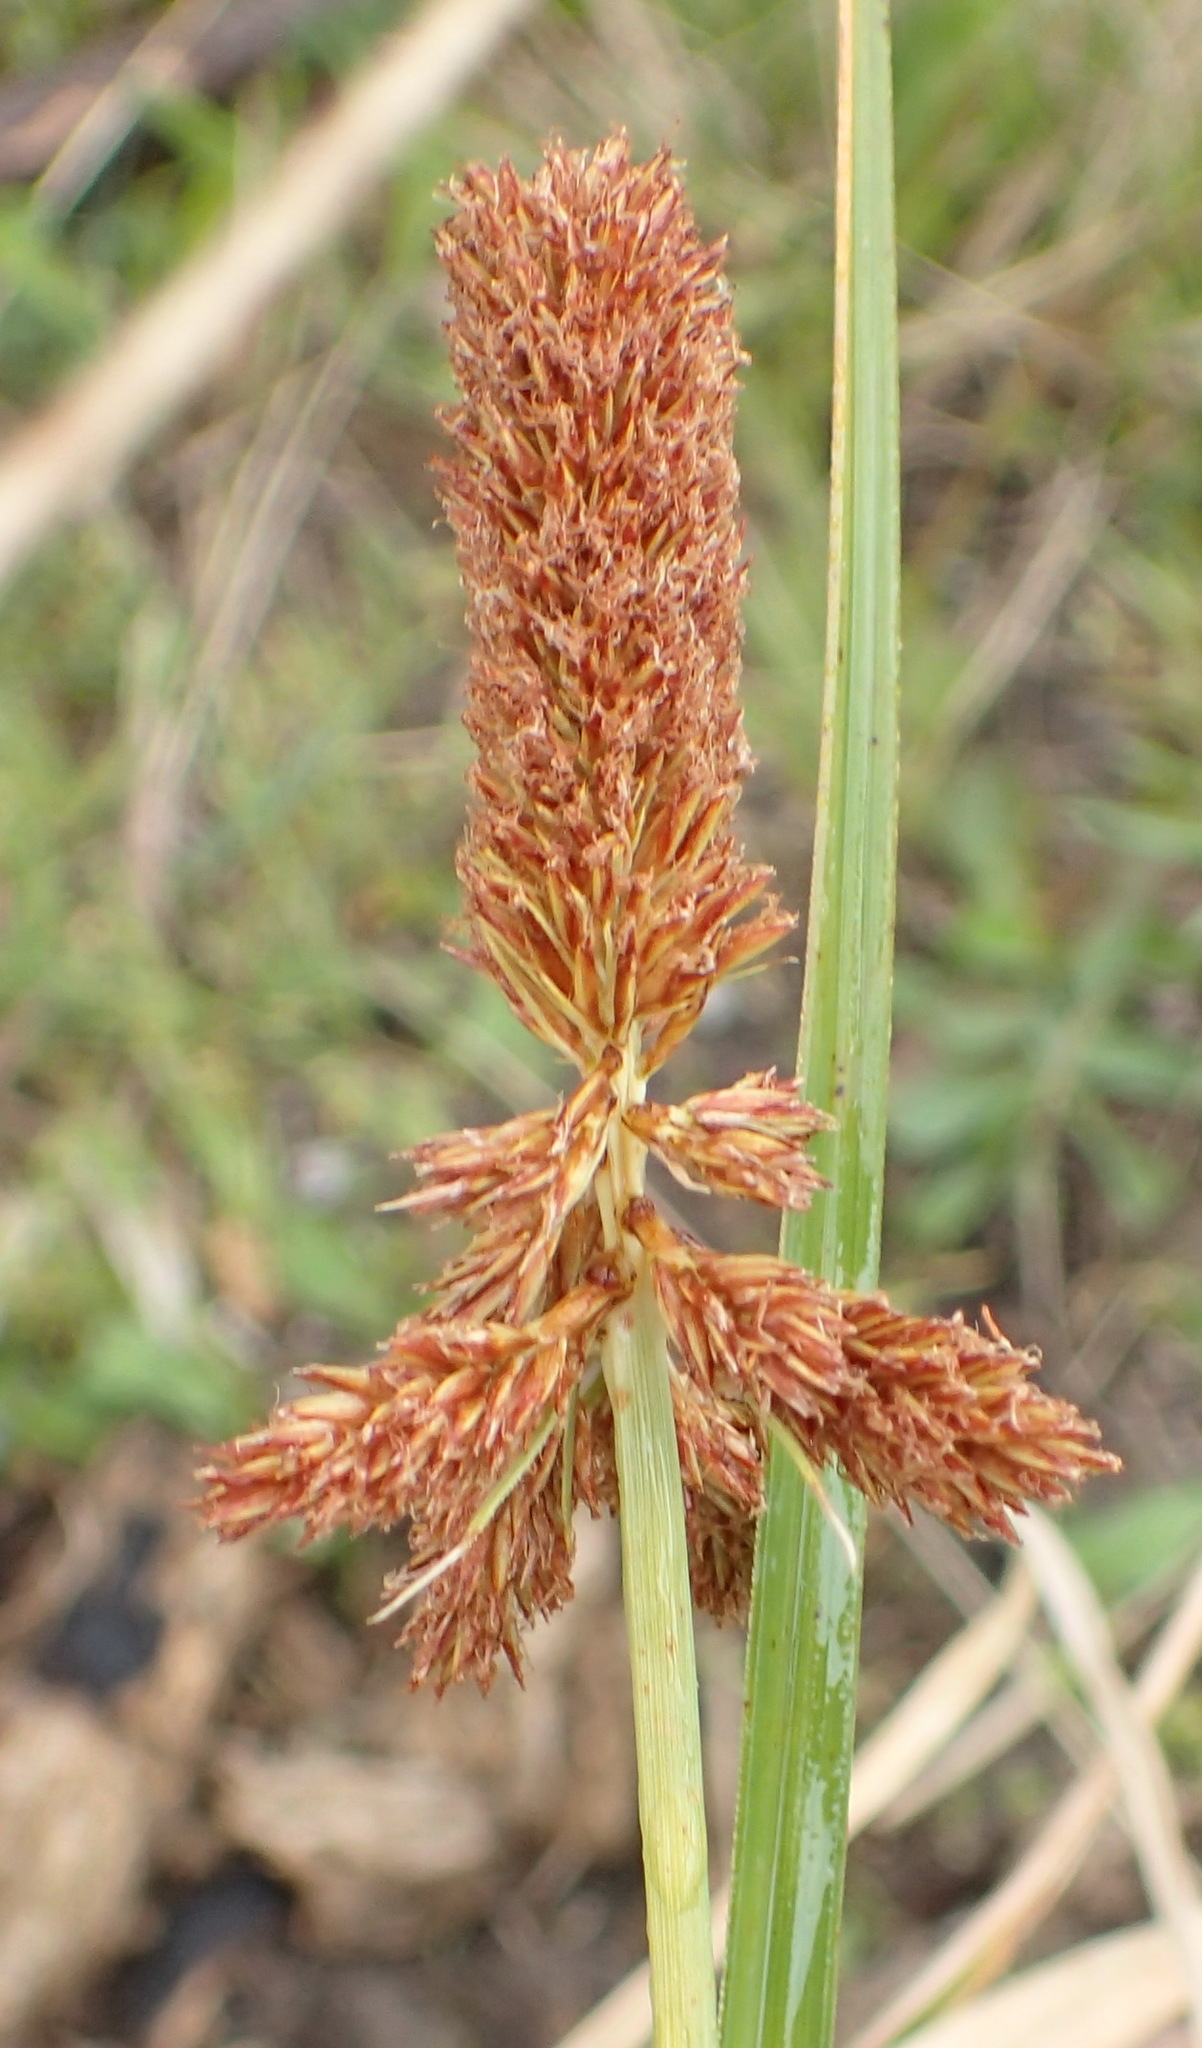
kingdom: Plantae
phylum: Tracheophyta
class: Liliopsida
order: Poales
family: Cyperaceae
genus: Cyperus
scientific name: Cyperus thunbergii
